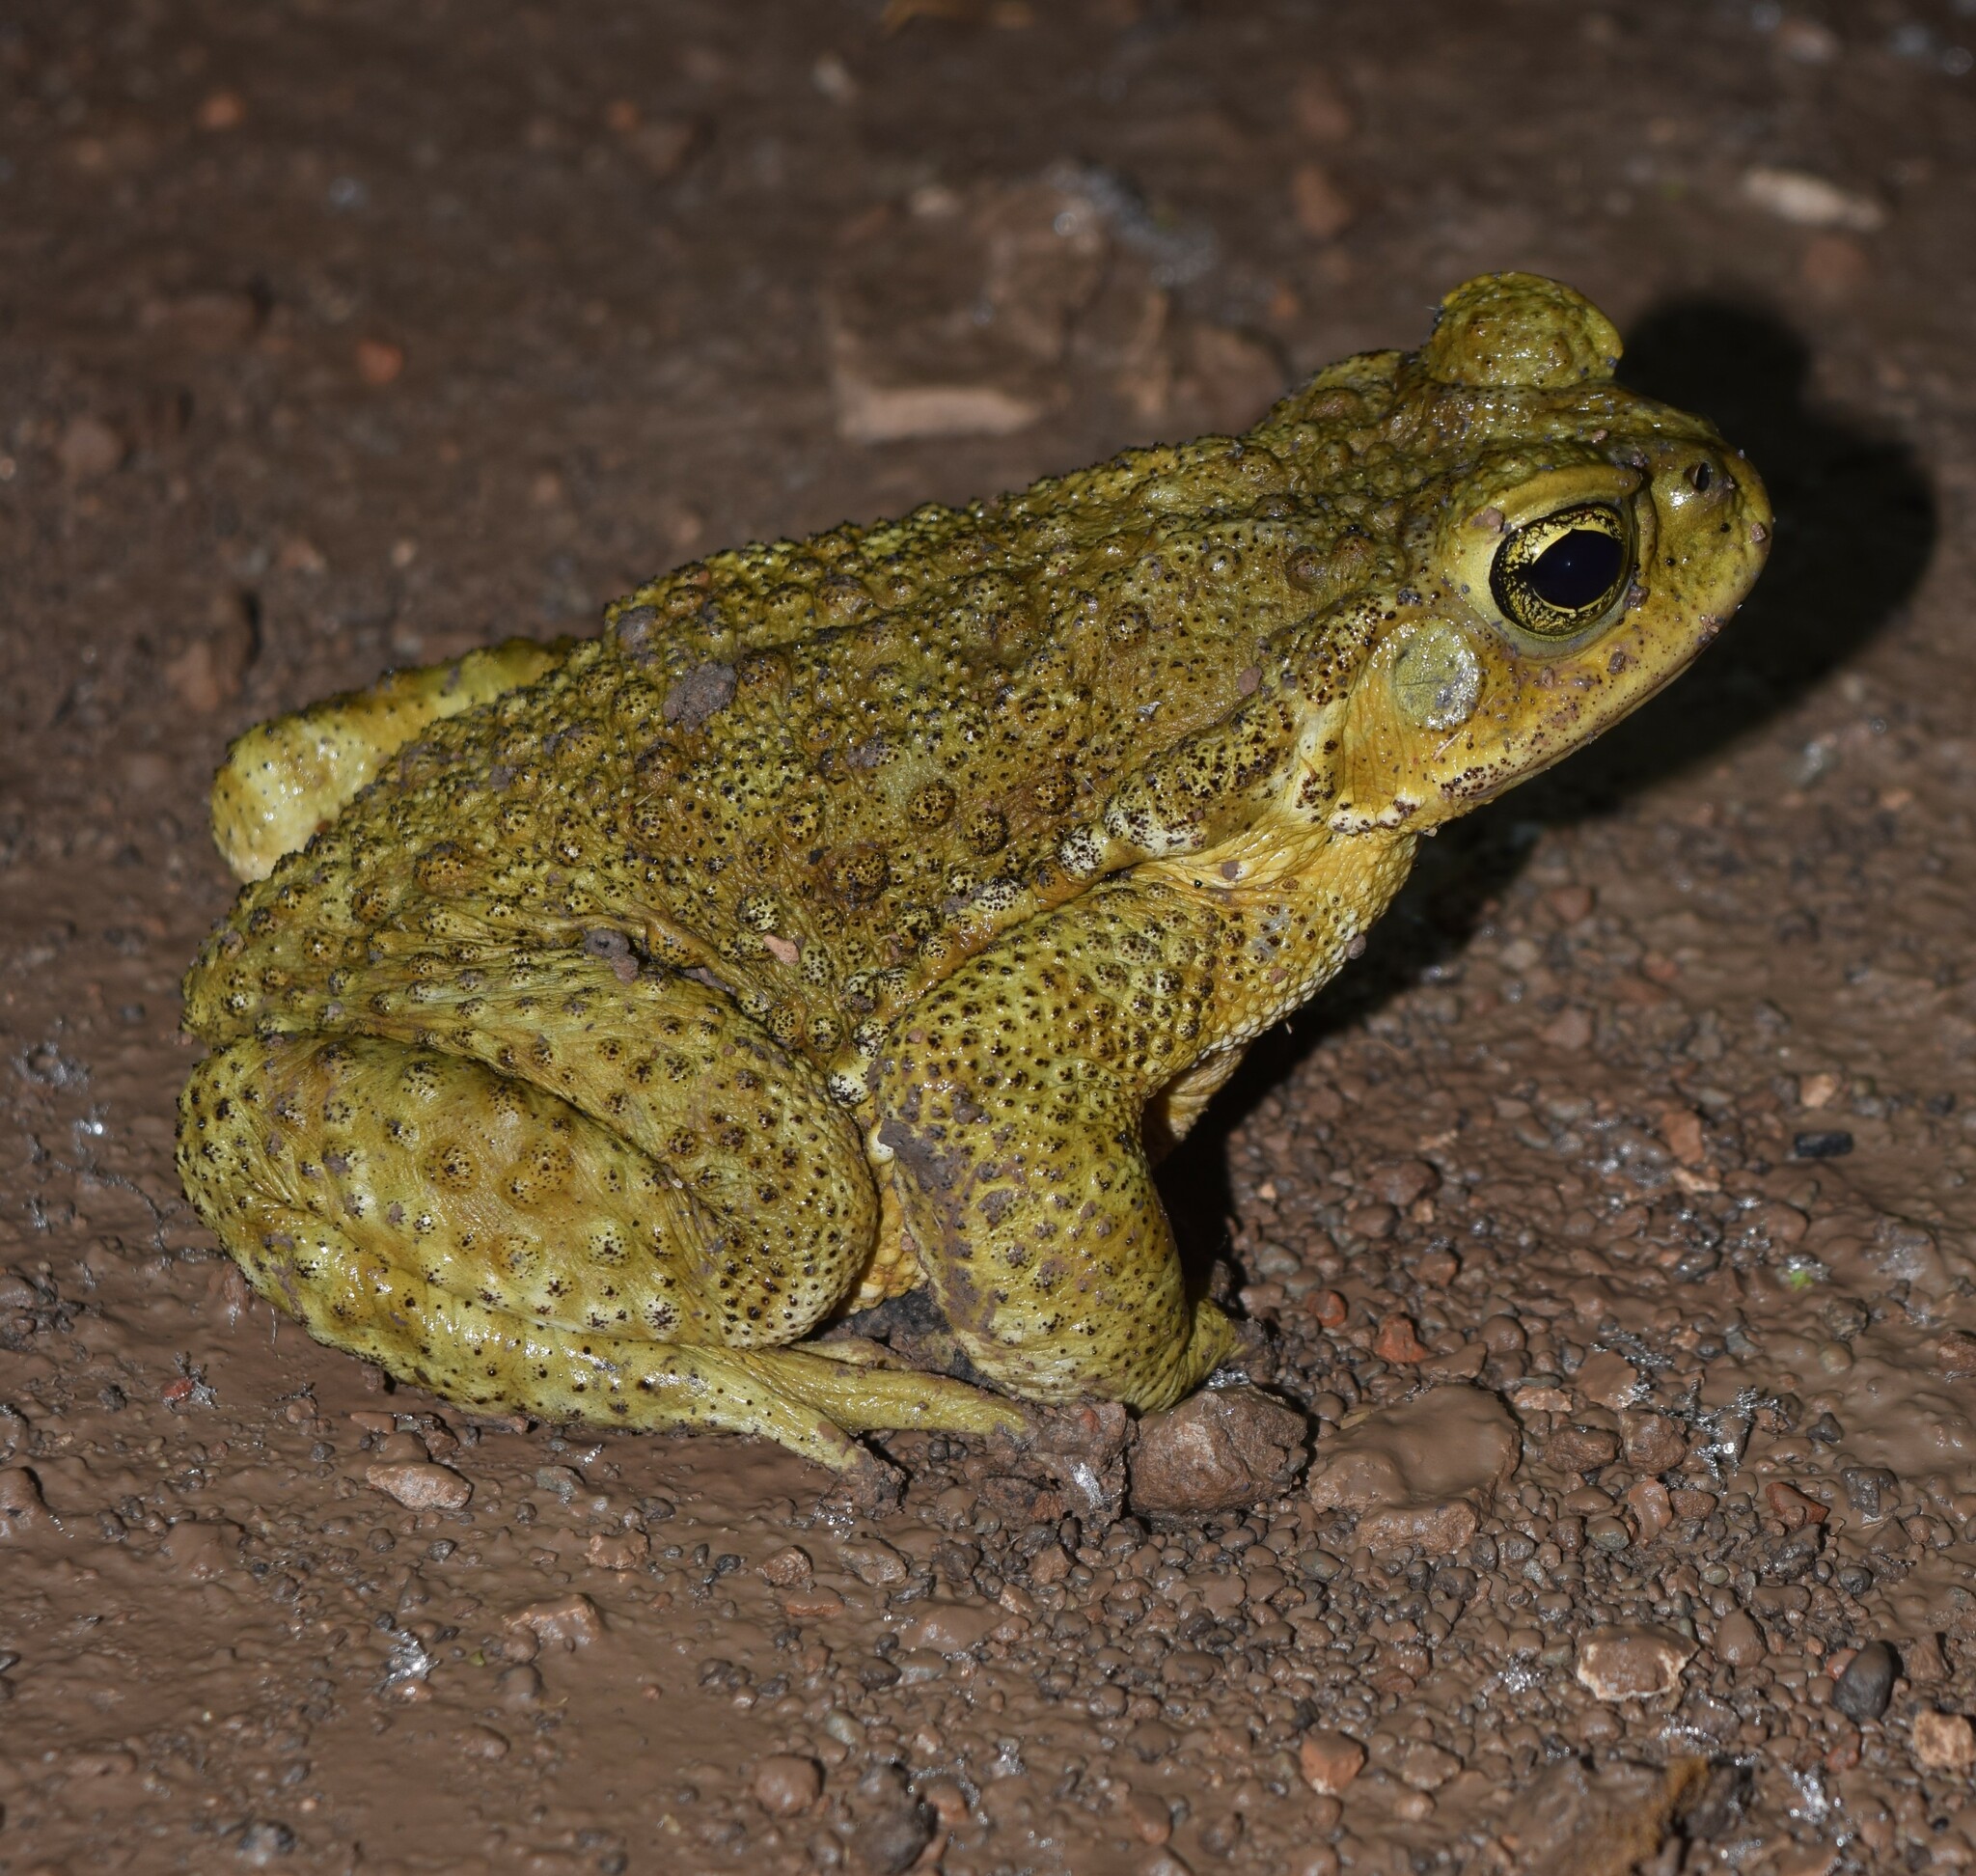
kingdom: Animalia
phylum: Chordata
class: Amphibia
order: Anura
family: Bufonidae
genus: Rhinella
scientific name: Rhinella arenarum
